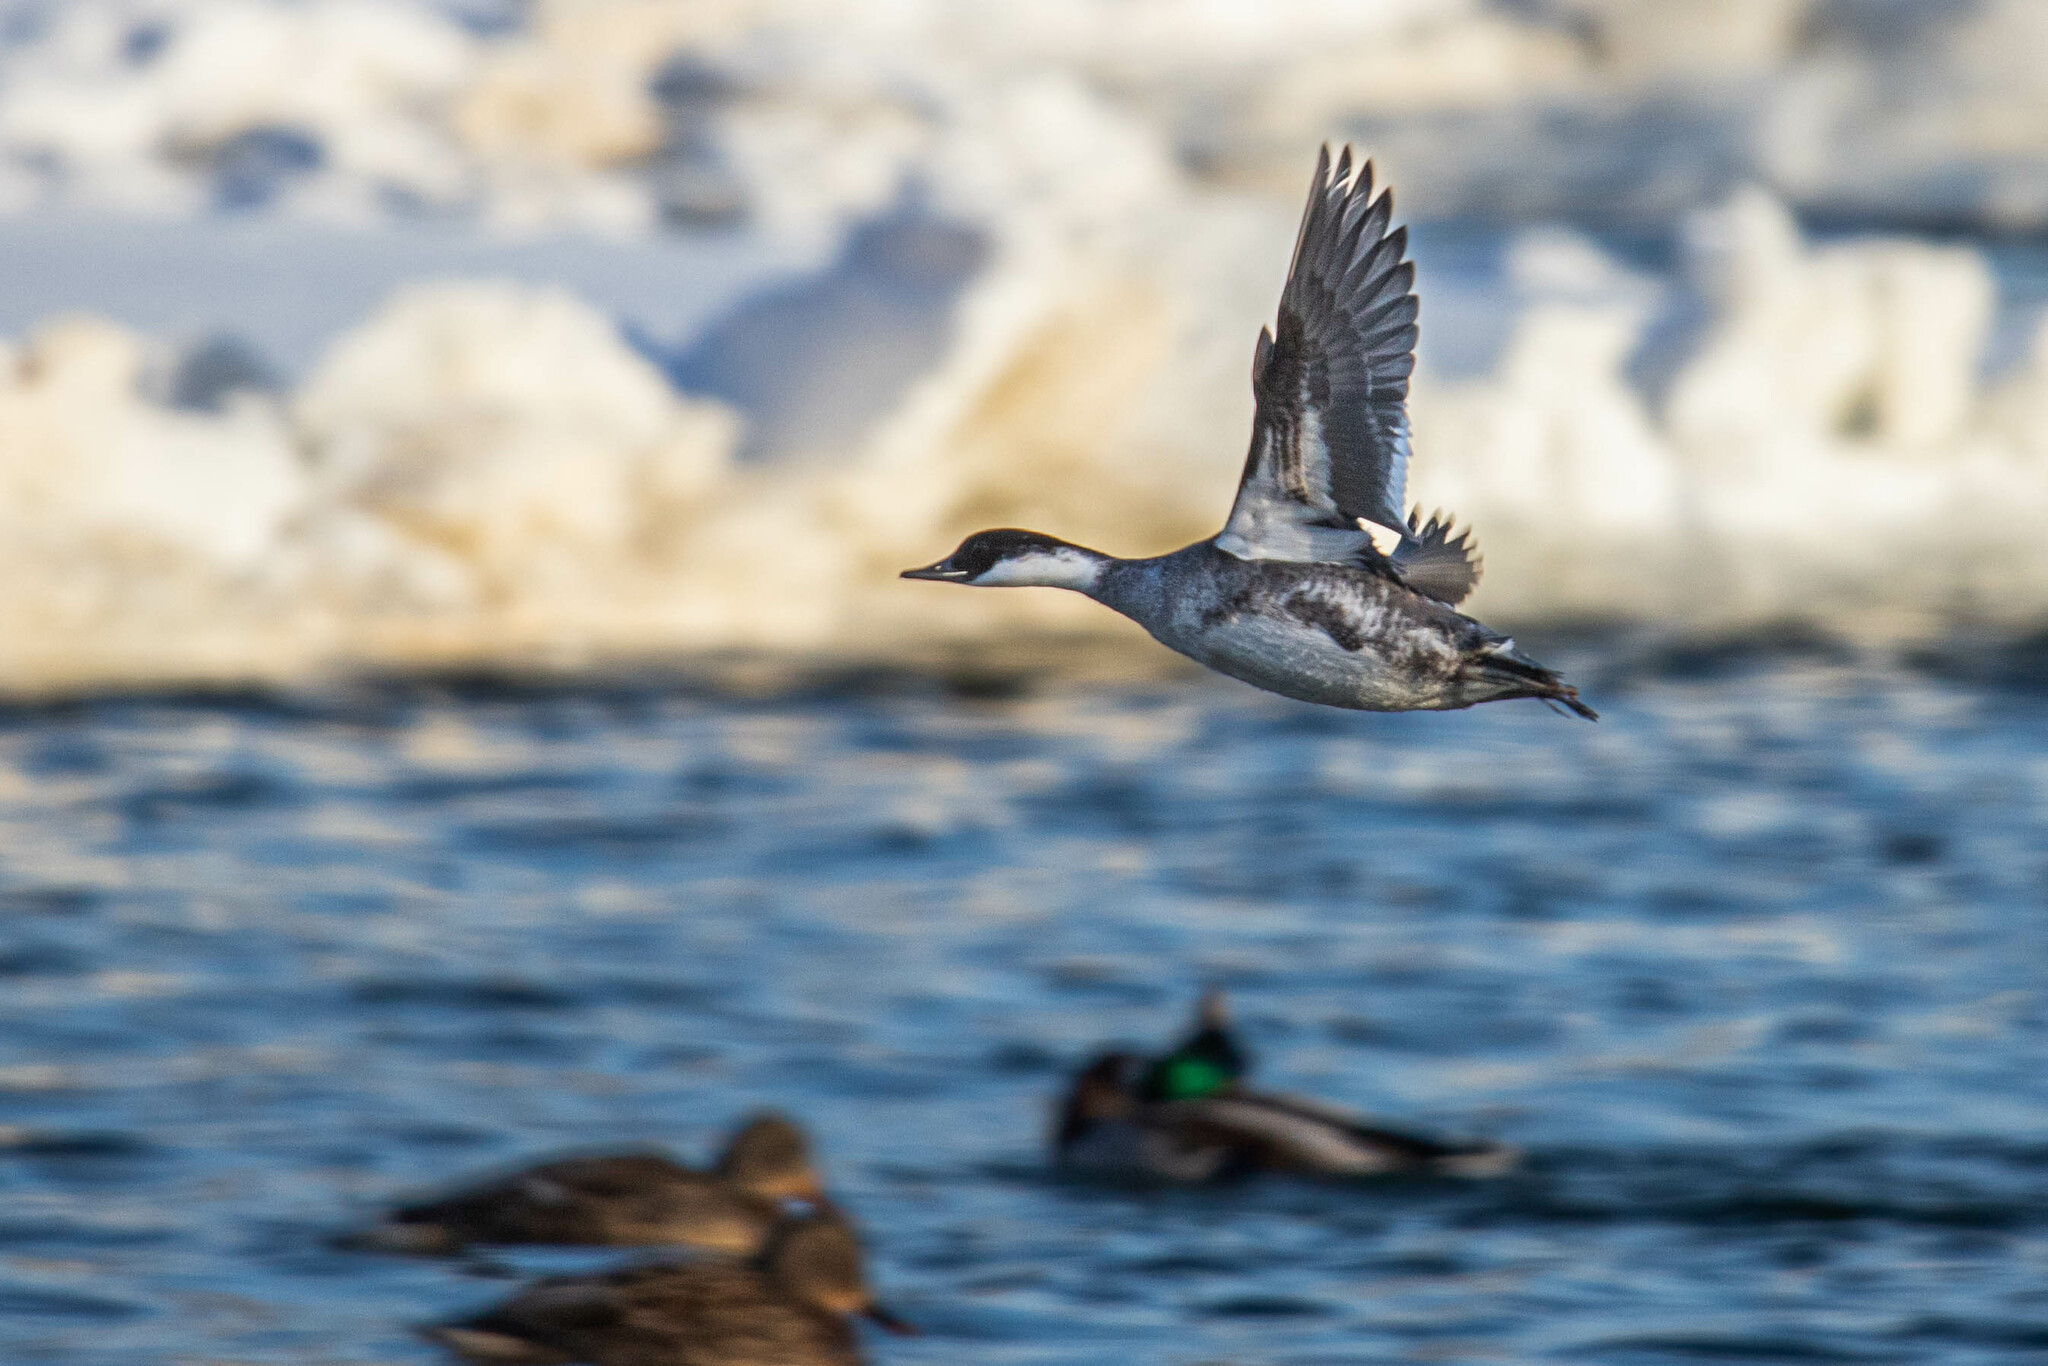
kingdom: Animalia
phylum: Chordata
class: Aves
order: Anseriformes
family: Anatidae
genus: Mergellus
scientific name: Mergellus albellus
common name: Smew
